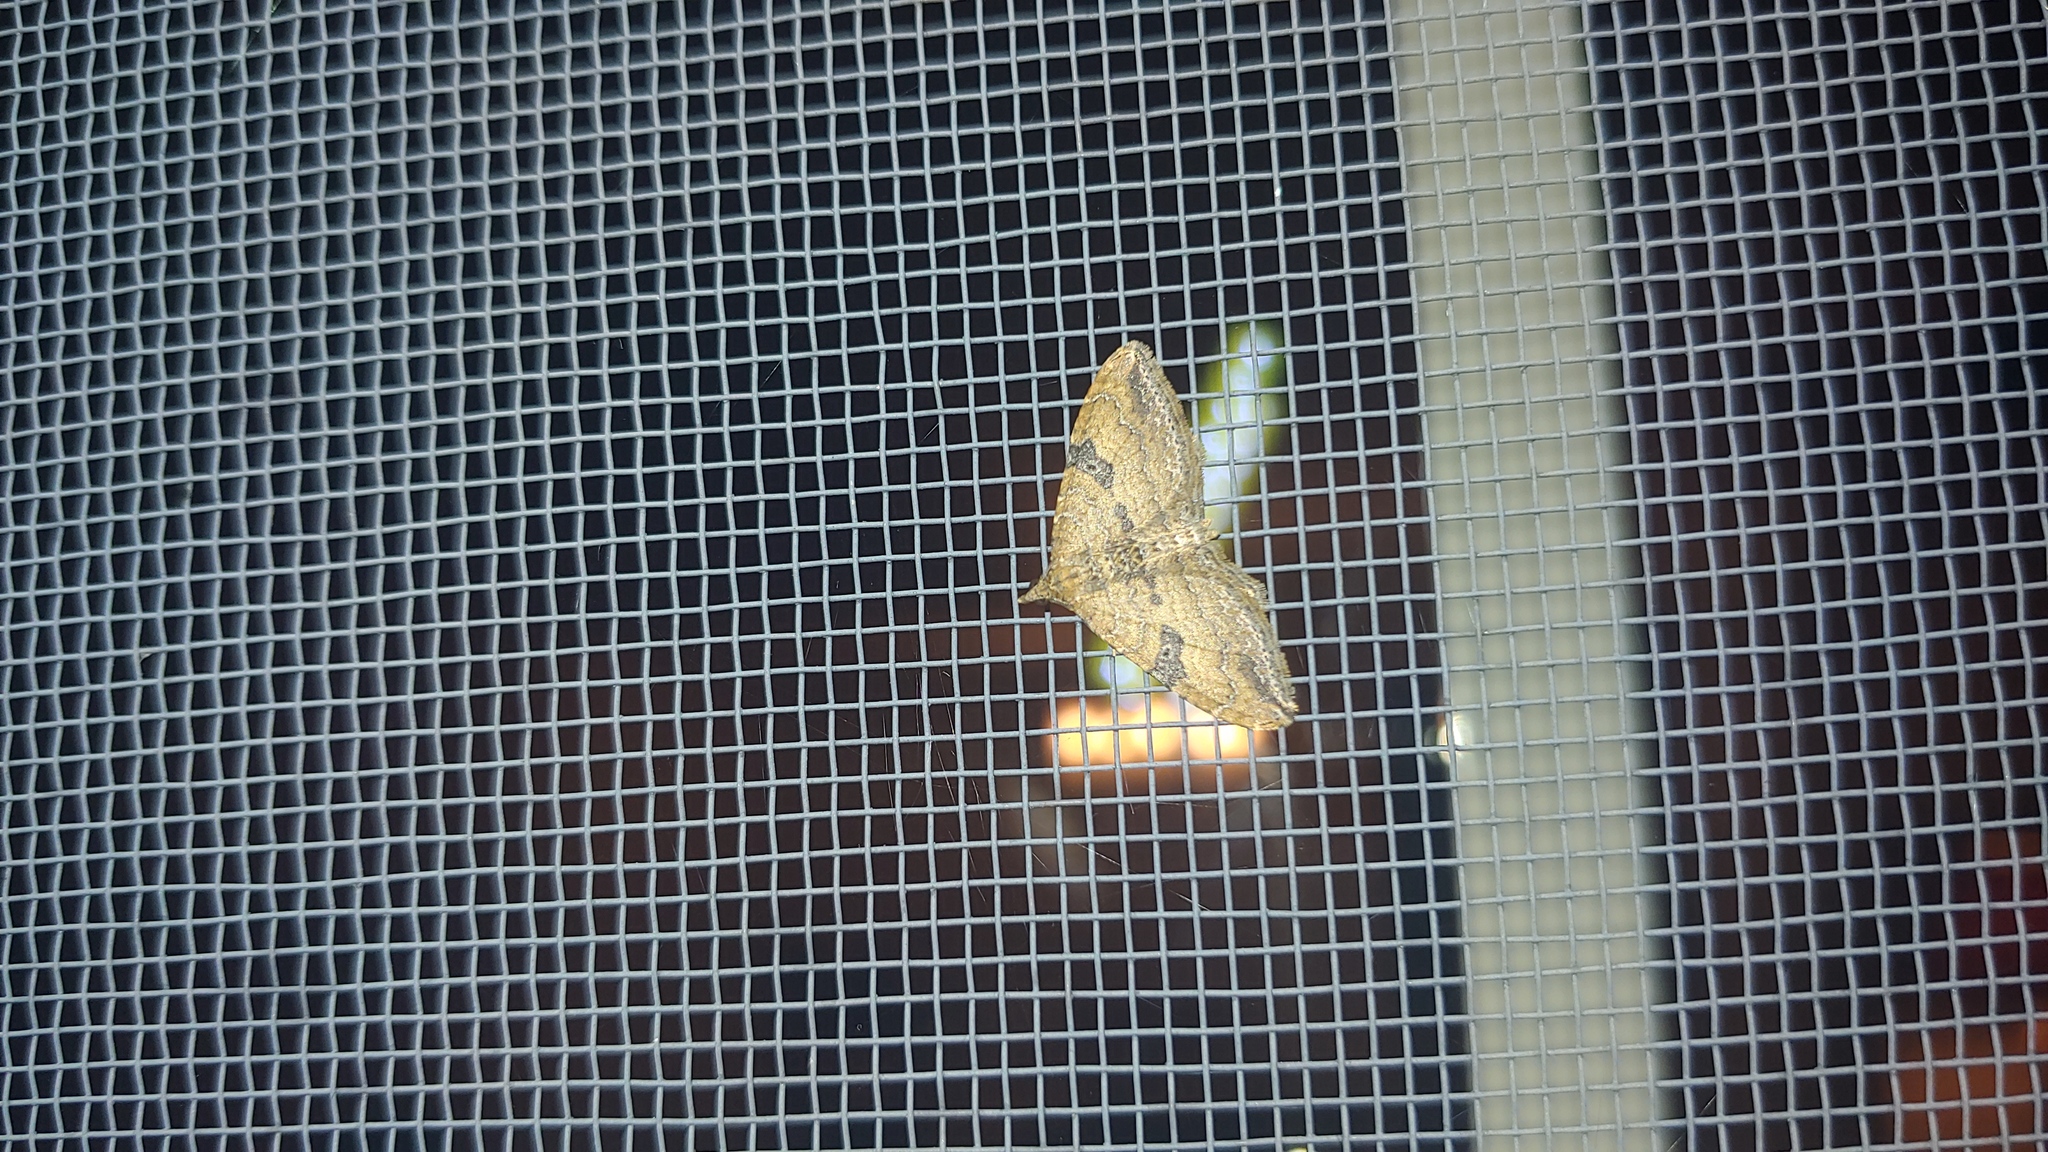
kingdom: Animalia
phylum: Arthropoda
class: Insecta
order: Lepidoptera
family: Geometridae
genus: Orthonama
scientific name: Orthonama obstipata
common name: The gem
